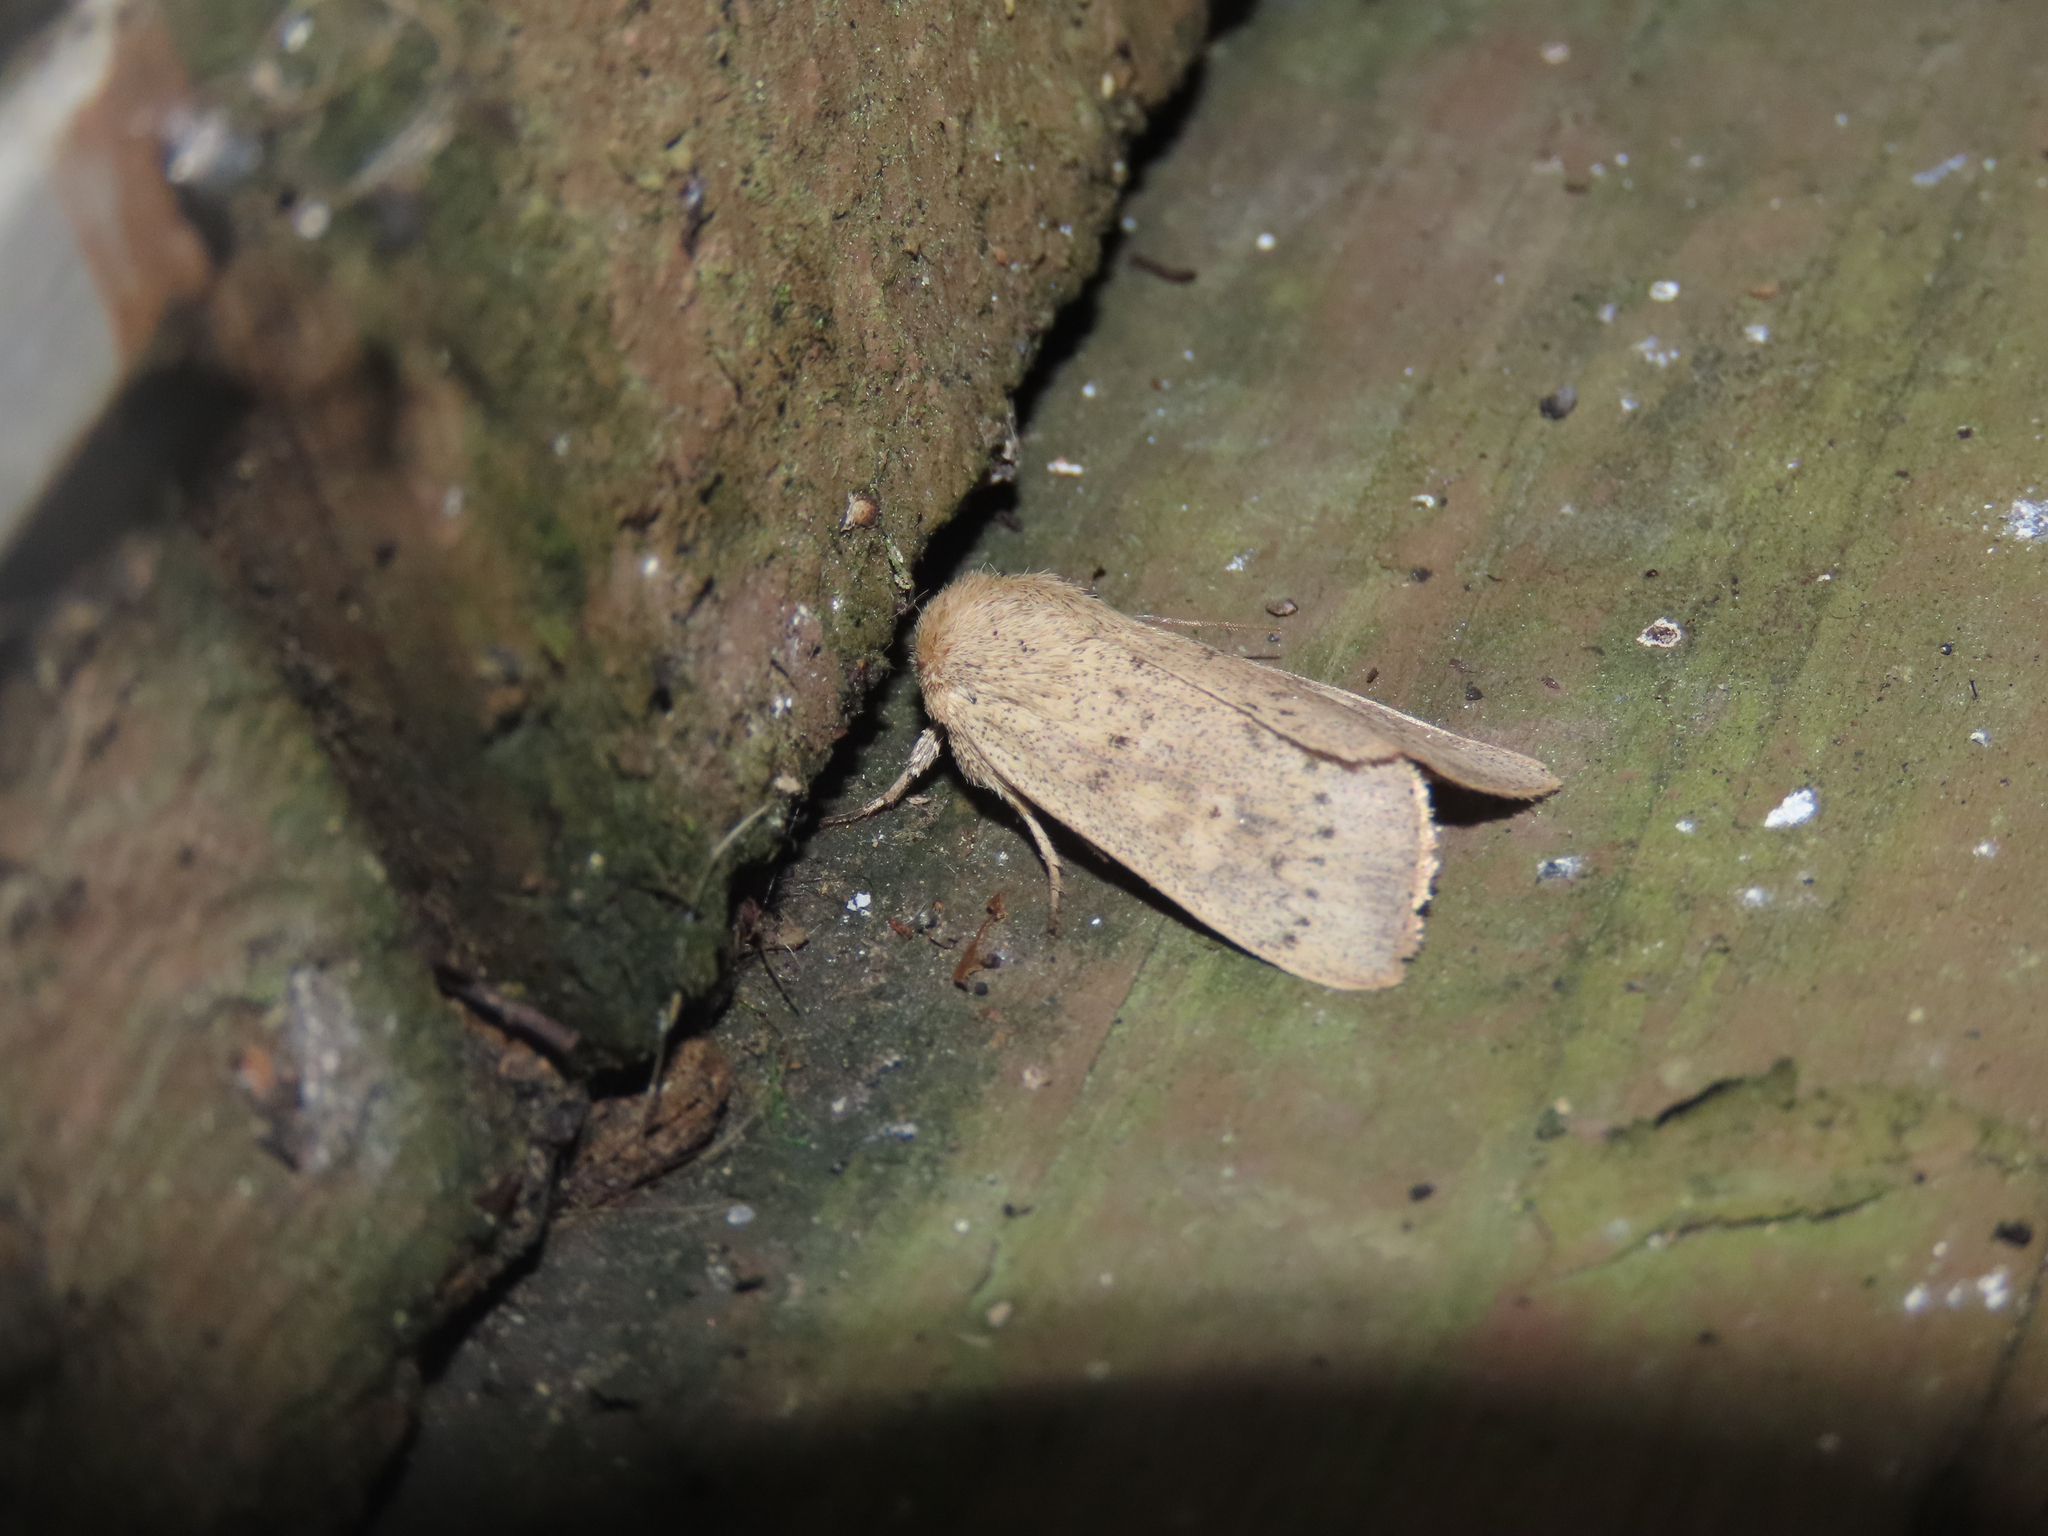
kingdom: Animalia
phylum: Arthropoda
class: Insecta
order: Lepidoptera
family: Noctuidae
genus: Leucania
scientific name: Leucania ursula
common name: Ursula wainscot
